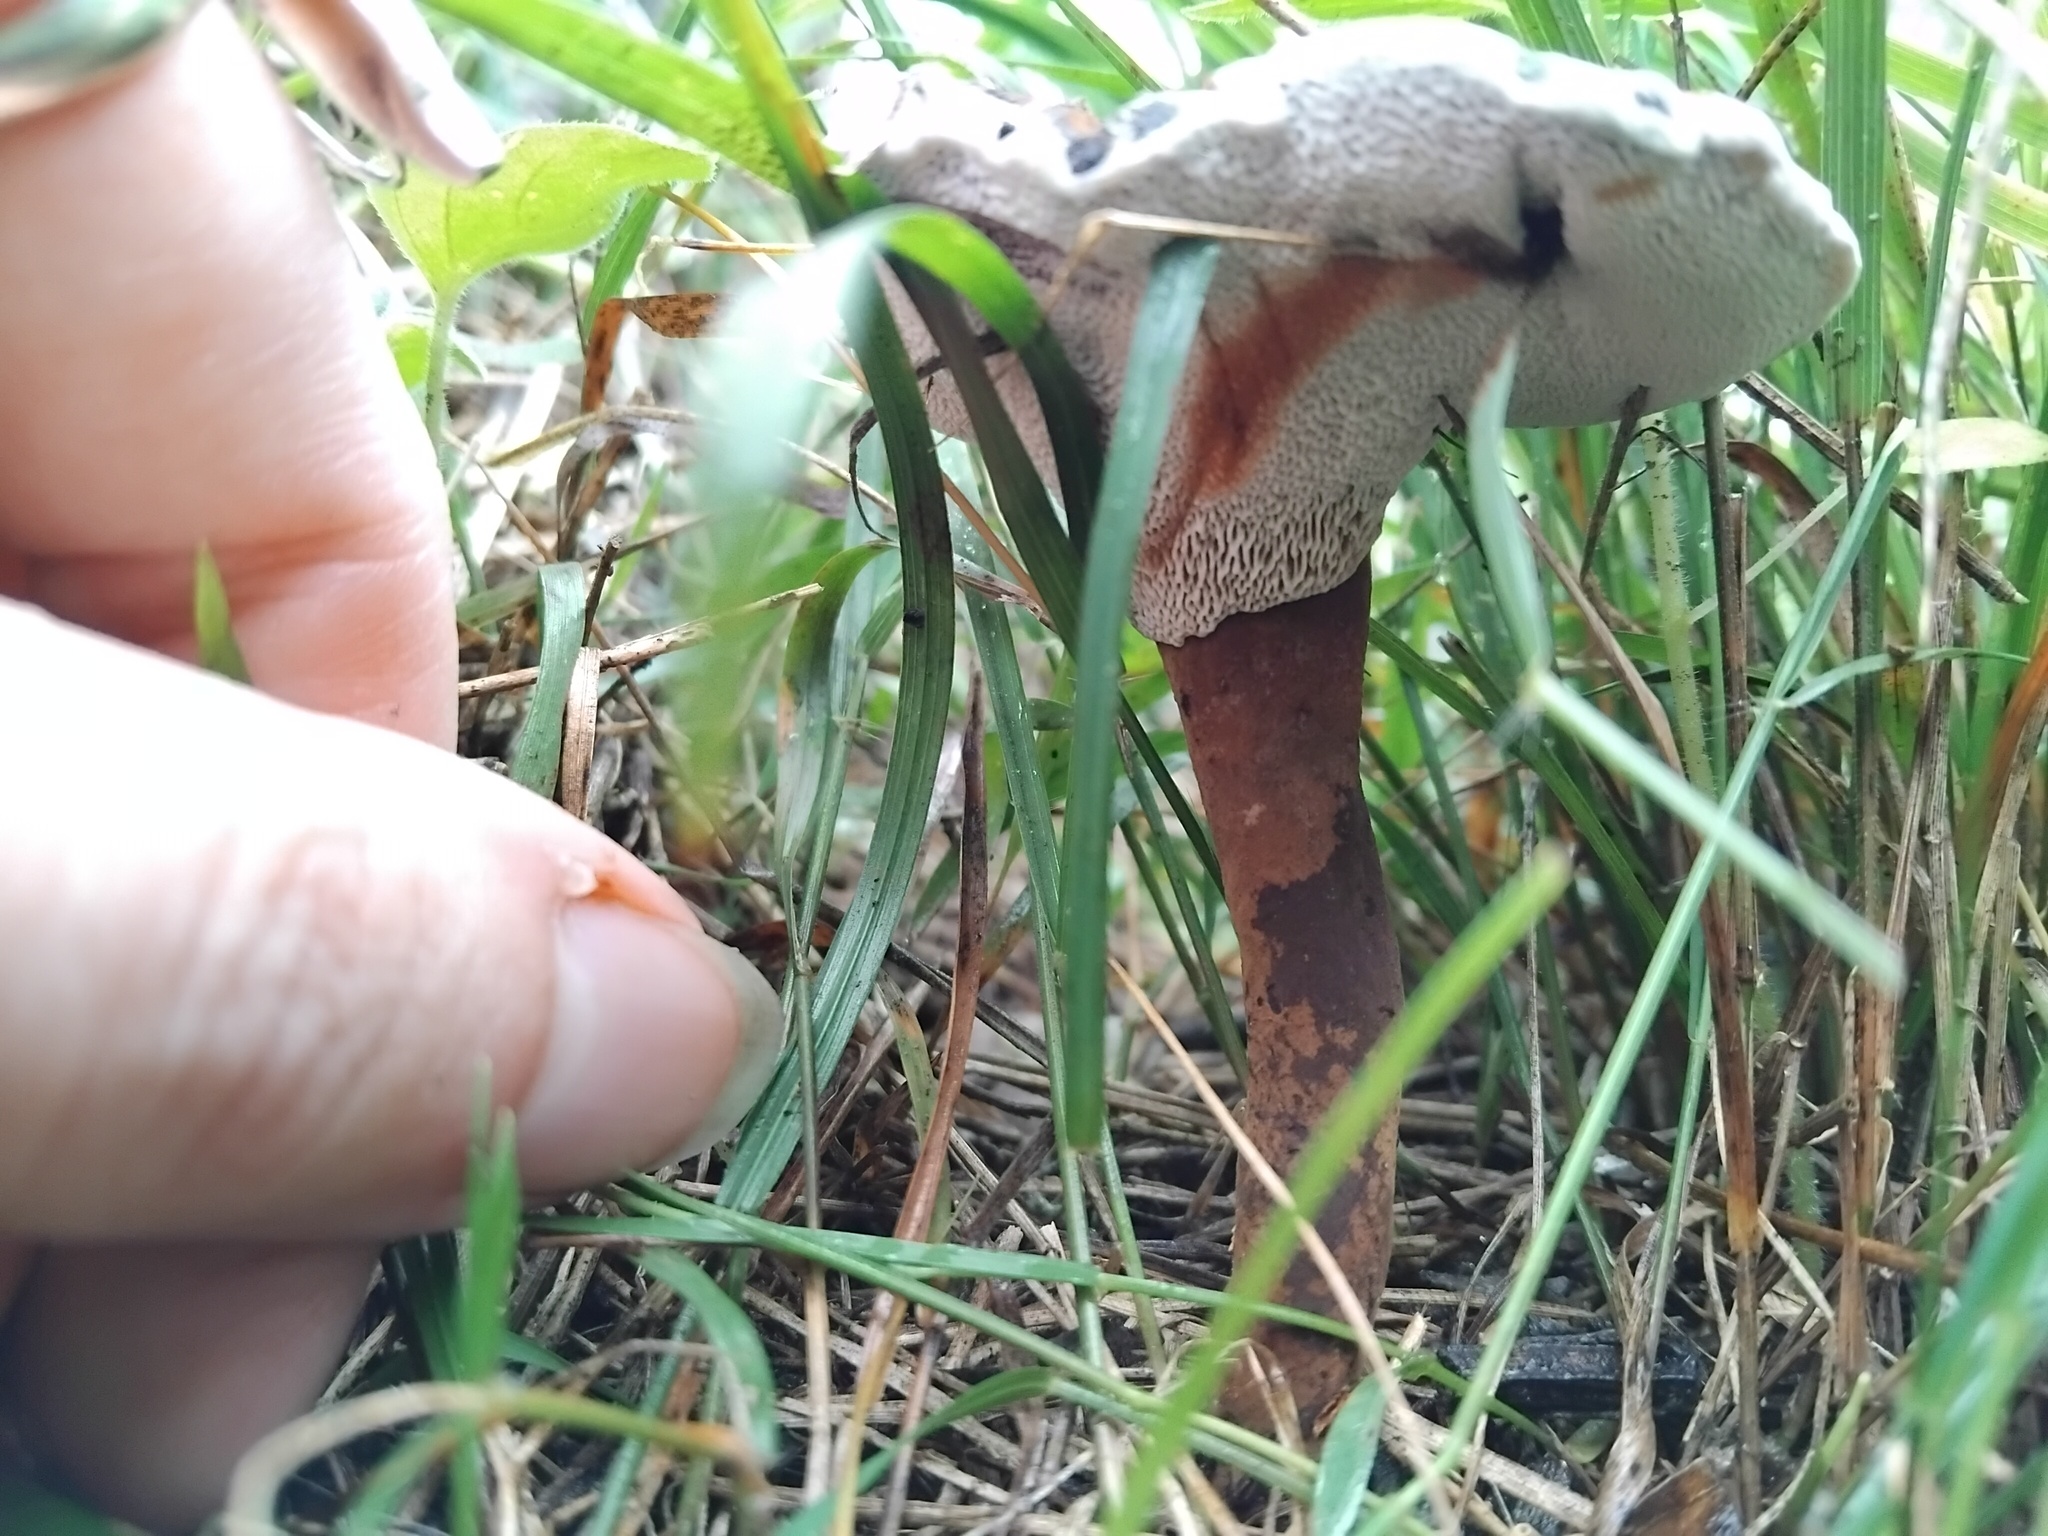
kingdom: Fungi
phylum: Basidiomycota
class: Agaricomycetes
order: Polyporales
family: Ganodermataceae
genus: Sanguinoderma
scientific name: Sanguinoderma rude
